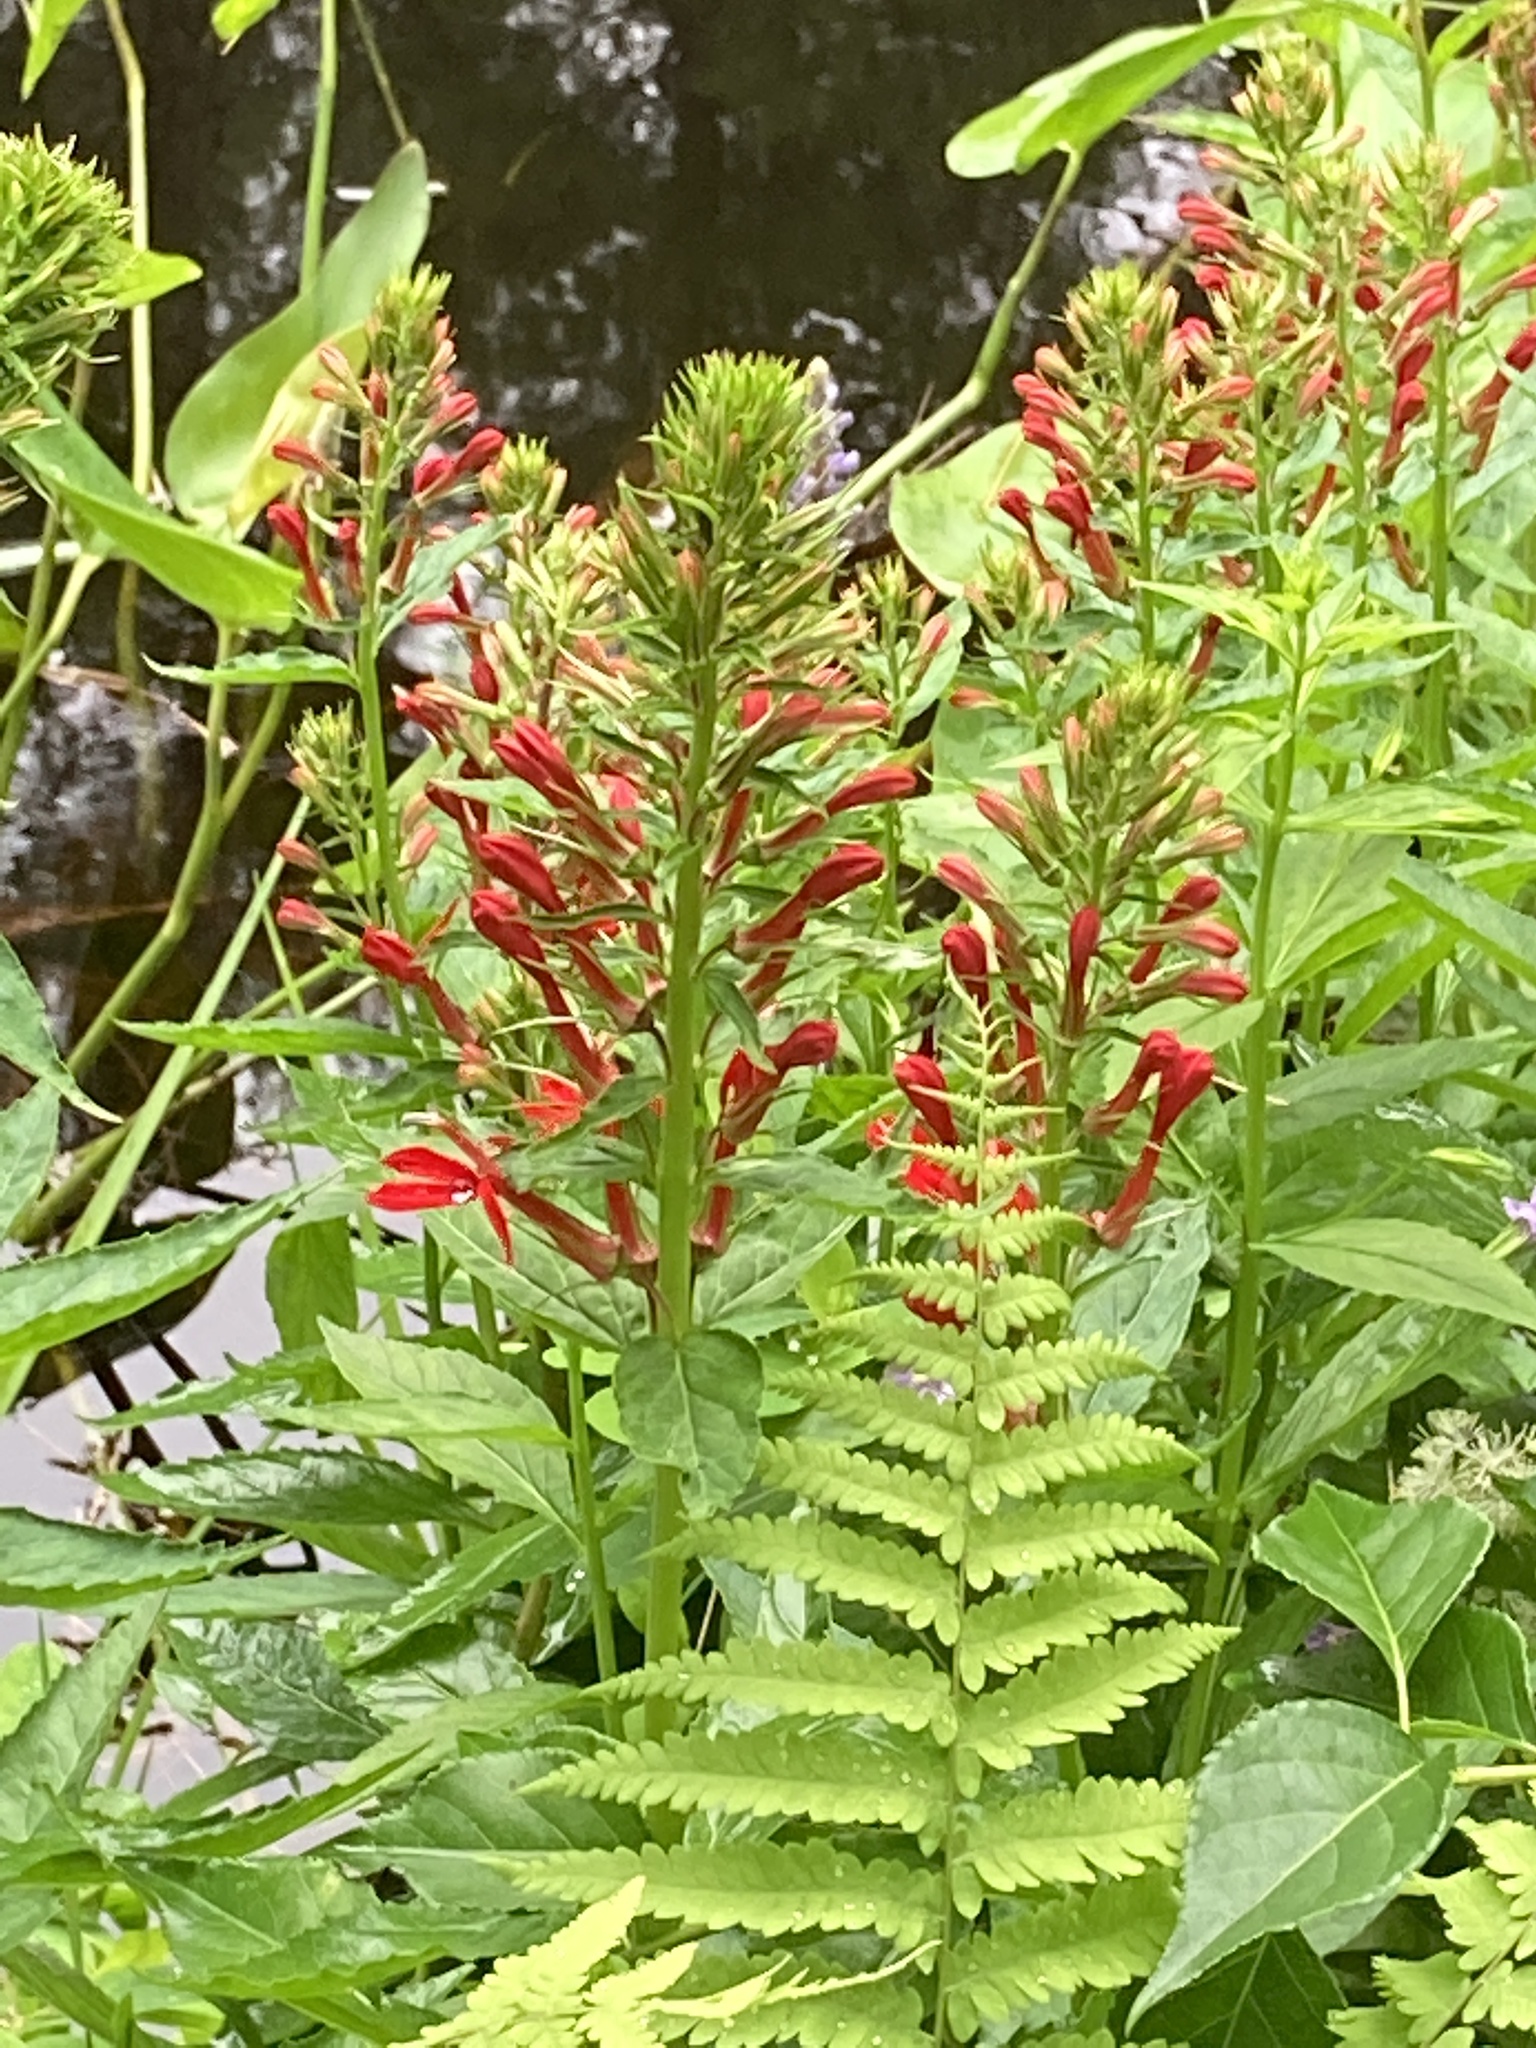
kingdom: Plantae
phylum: Tracheophyta
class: Magnoliopsida
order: Asterales
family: Campanulaceae
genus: Lobelia
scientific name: Lobelia cardinalis
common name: Cardinal flower
